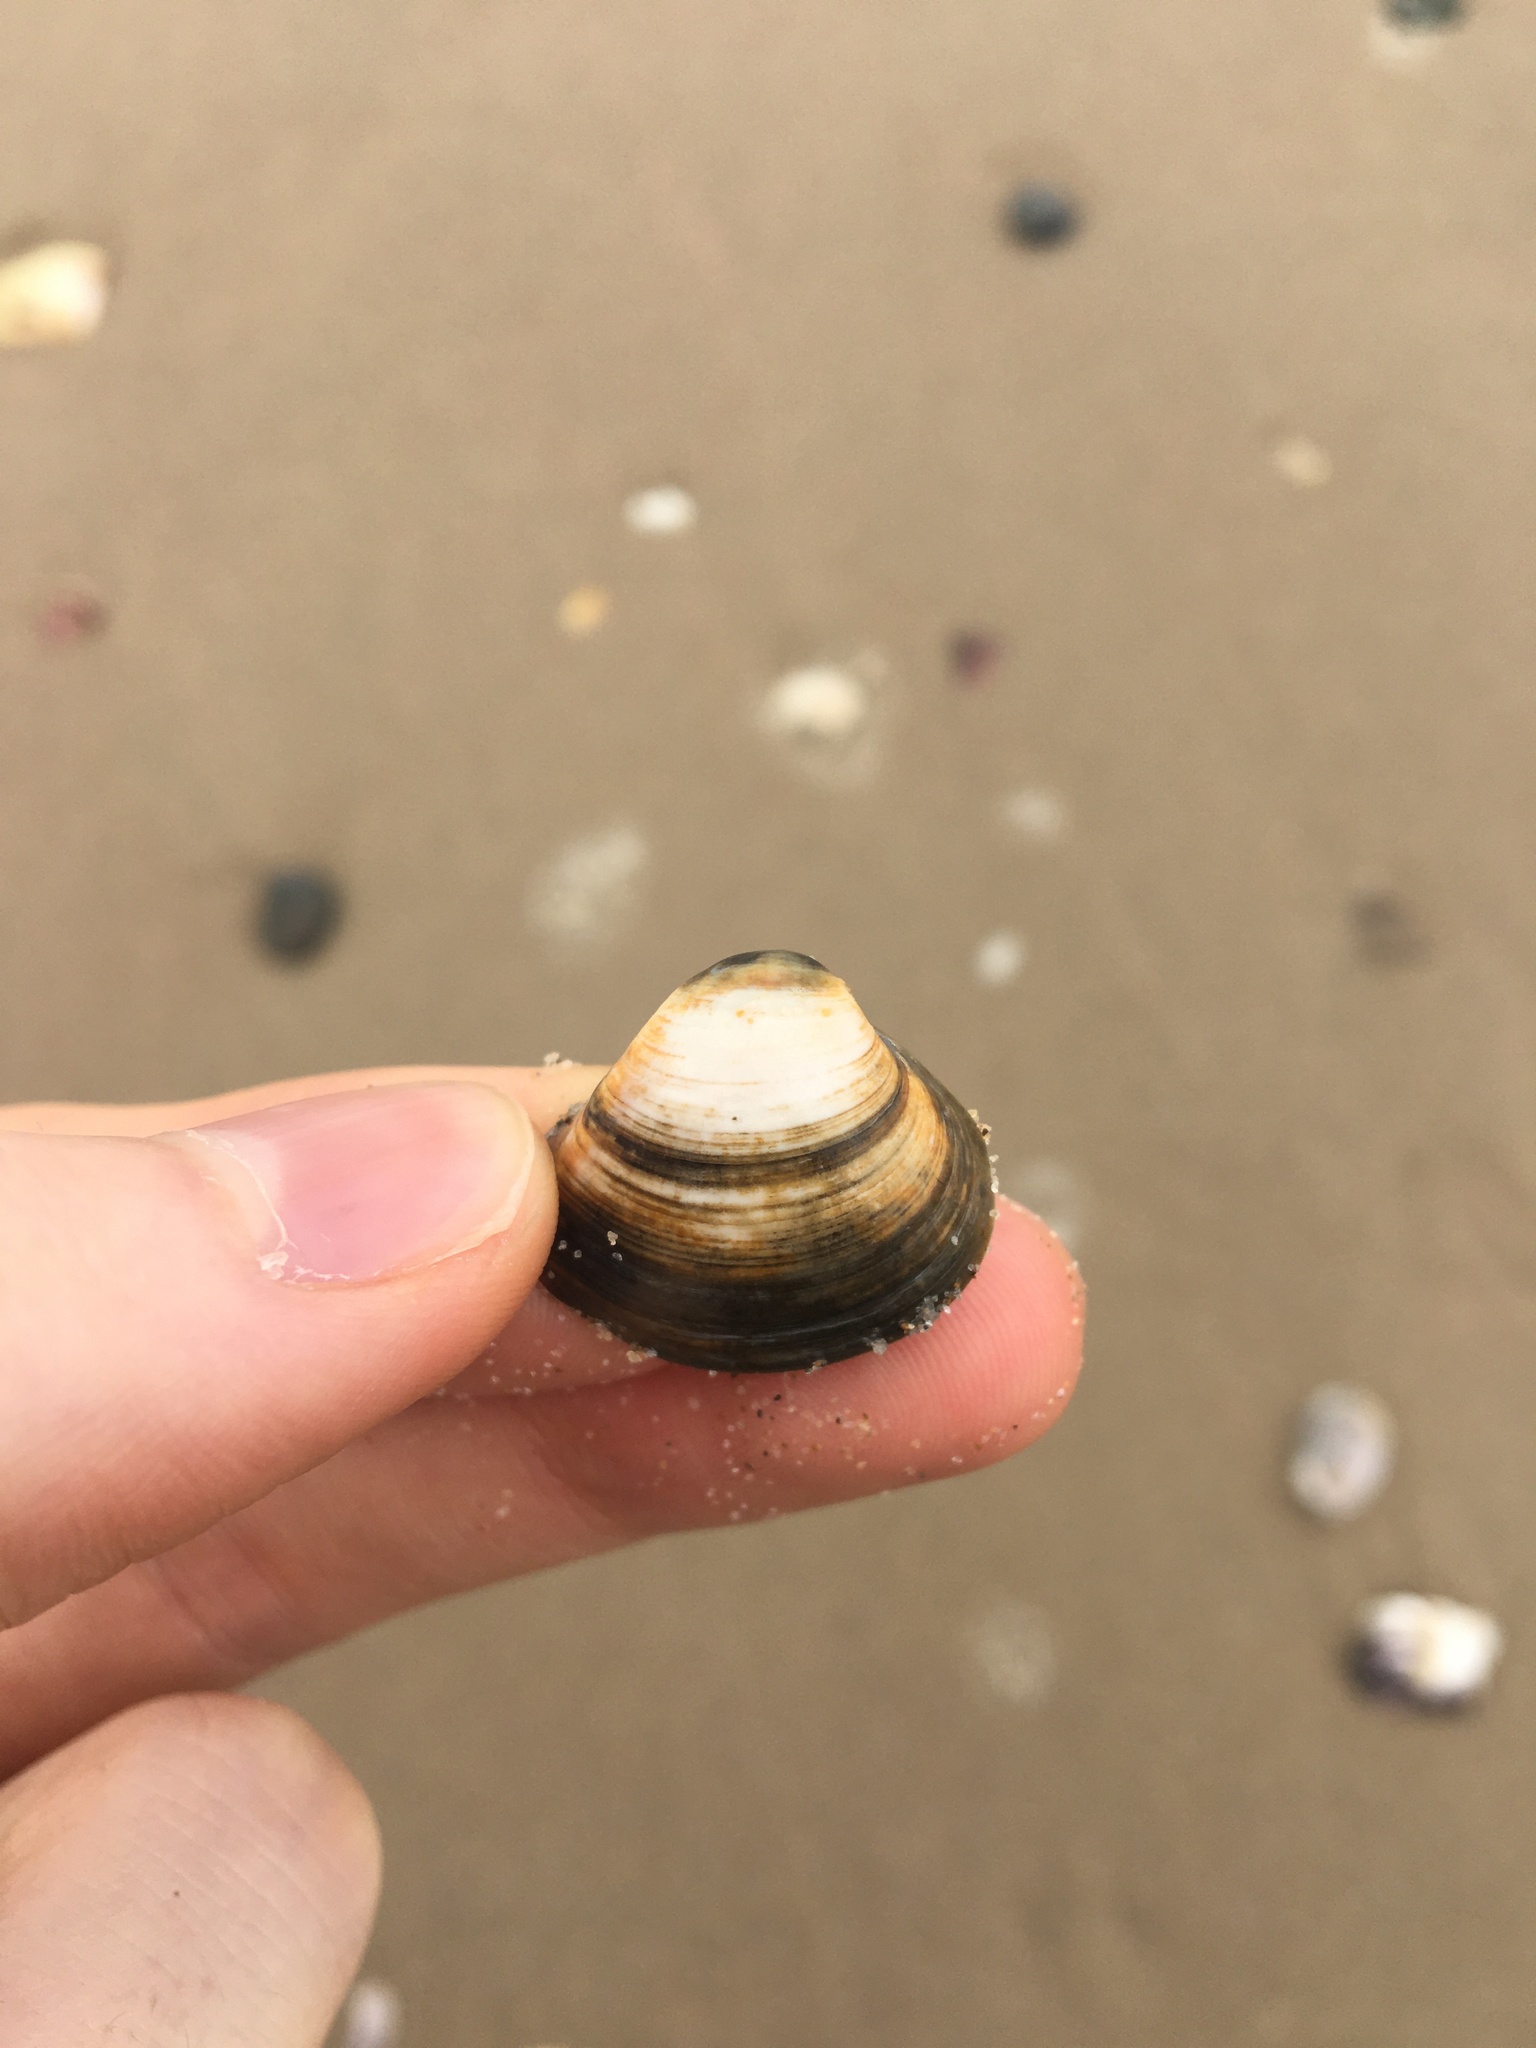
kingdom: Animalia
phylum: Mollusca
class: Bivalvia
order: Venerida
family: Mactridae
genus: Spisula
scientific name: Spisula trigonella
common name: Trigonal mactra
